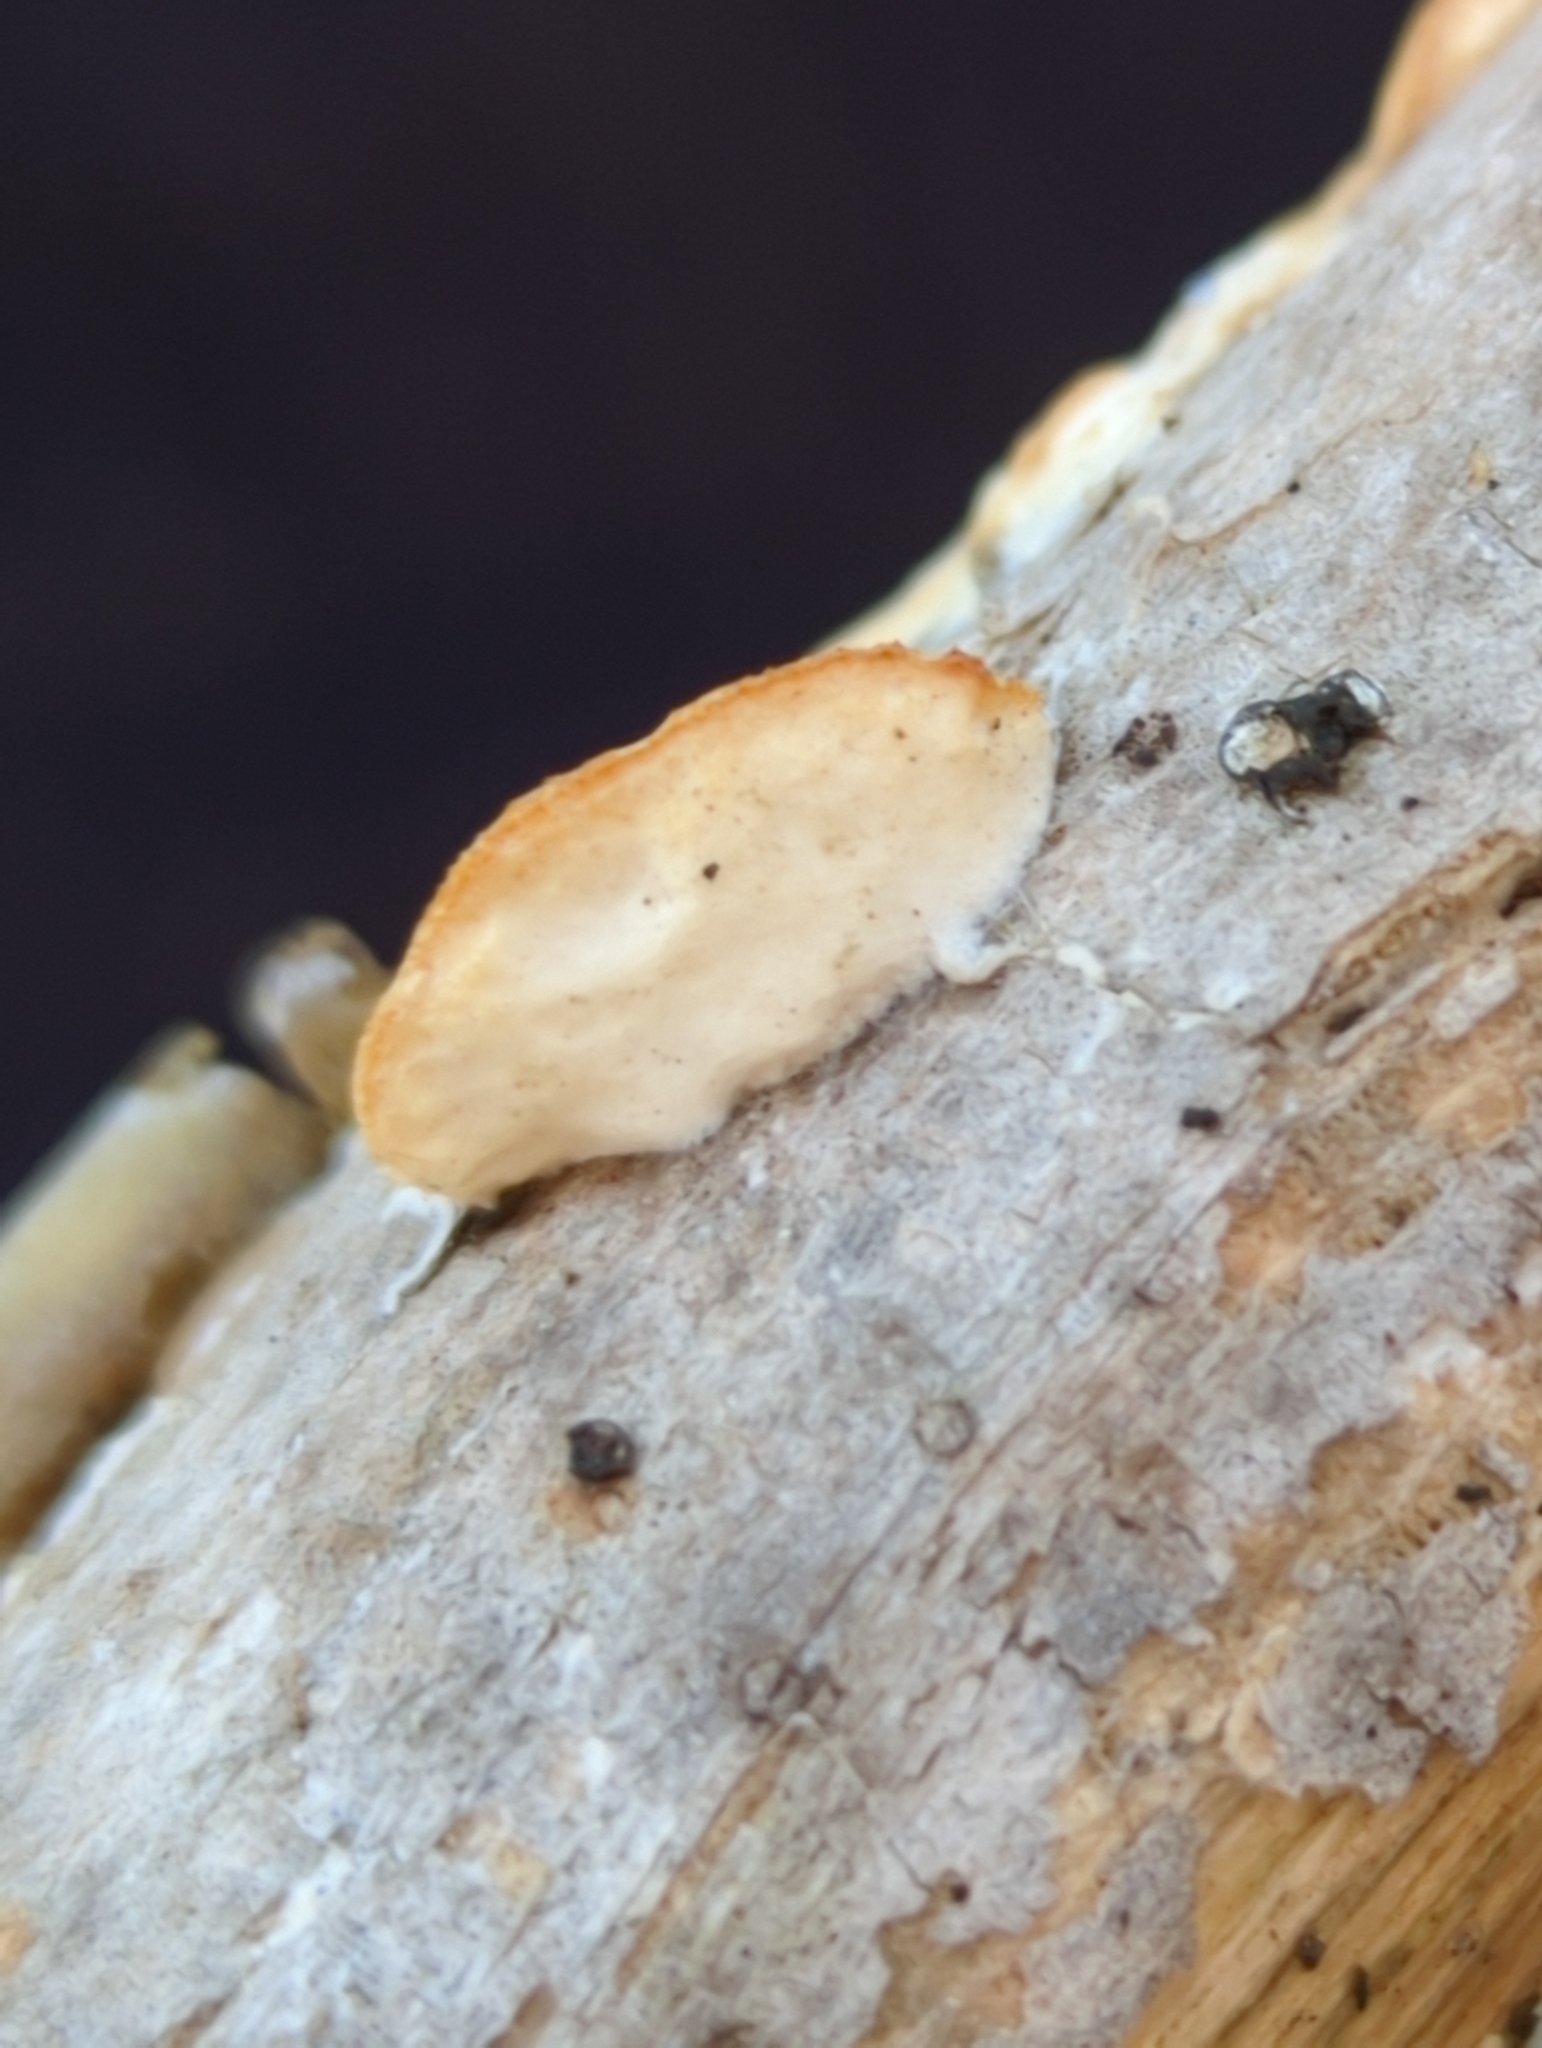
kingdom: Fungi
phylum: Basidiomycota
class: Agaricomycetes
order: Polyporales
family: Irpicaceae
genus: Vitreoporus
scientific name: Vitreoporus dichrous
